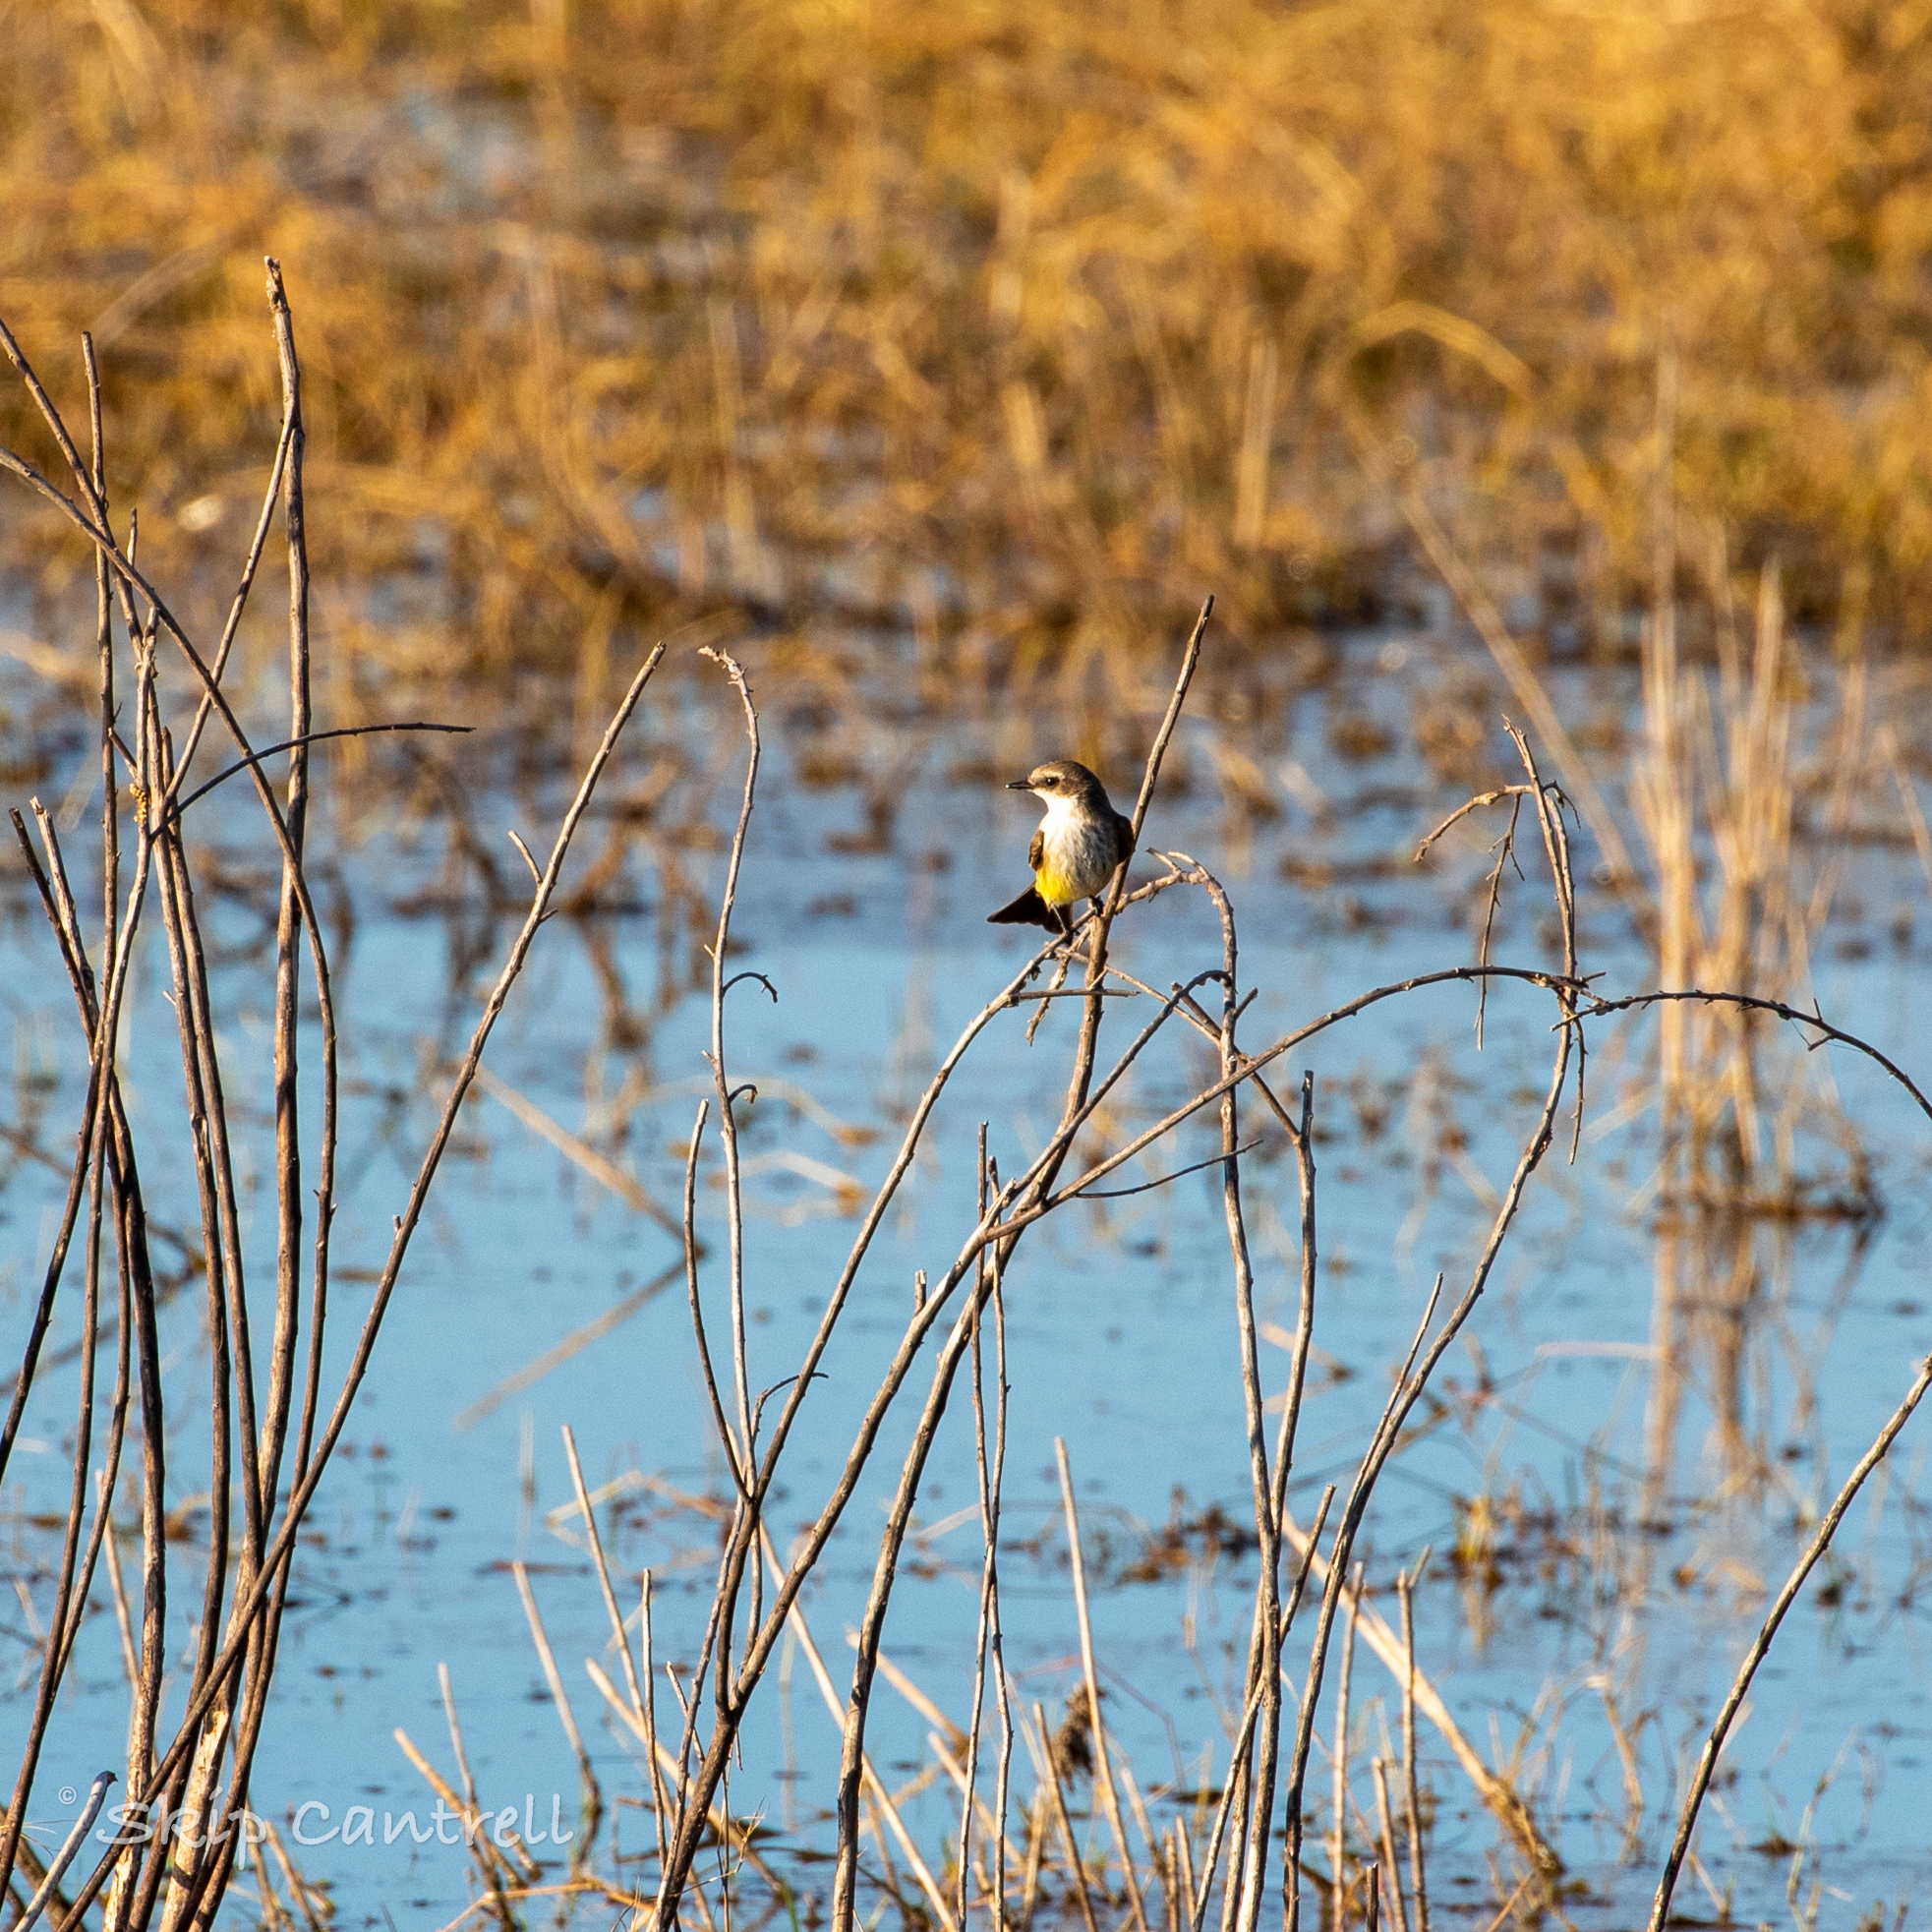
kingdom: Animalia
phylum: Chordata
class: Aves
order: Passeriformes
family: Tyrannidae
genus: Pyrocephalus
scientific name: Pyrocephalus rubinus
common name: Vermilion flycatcher
